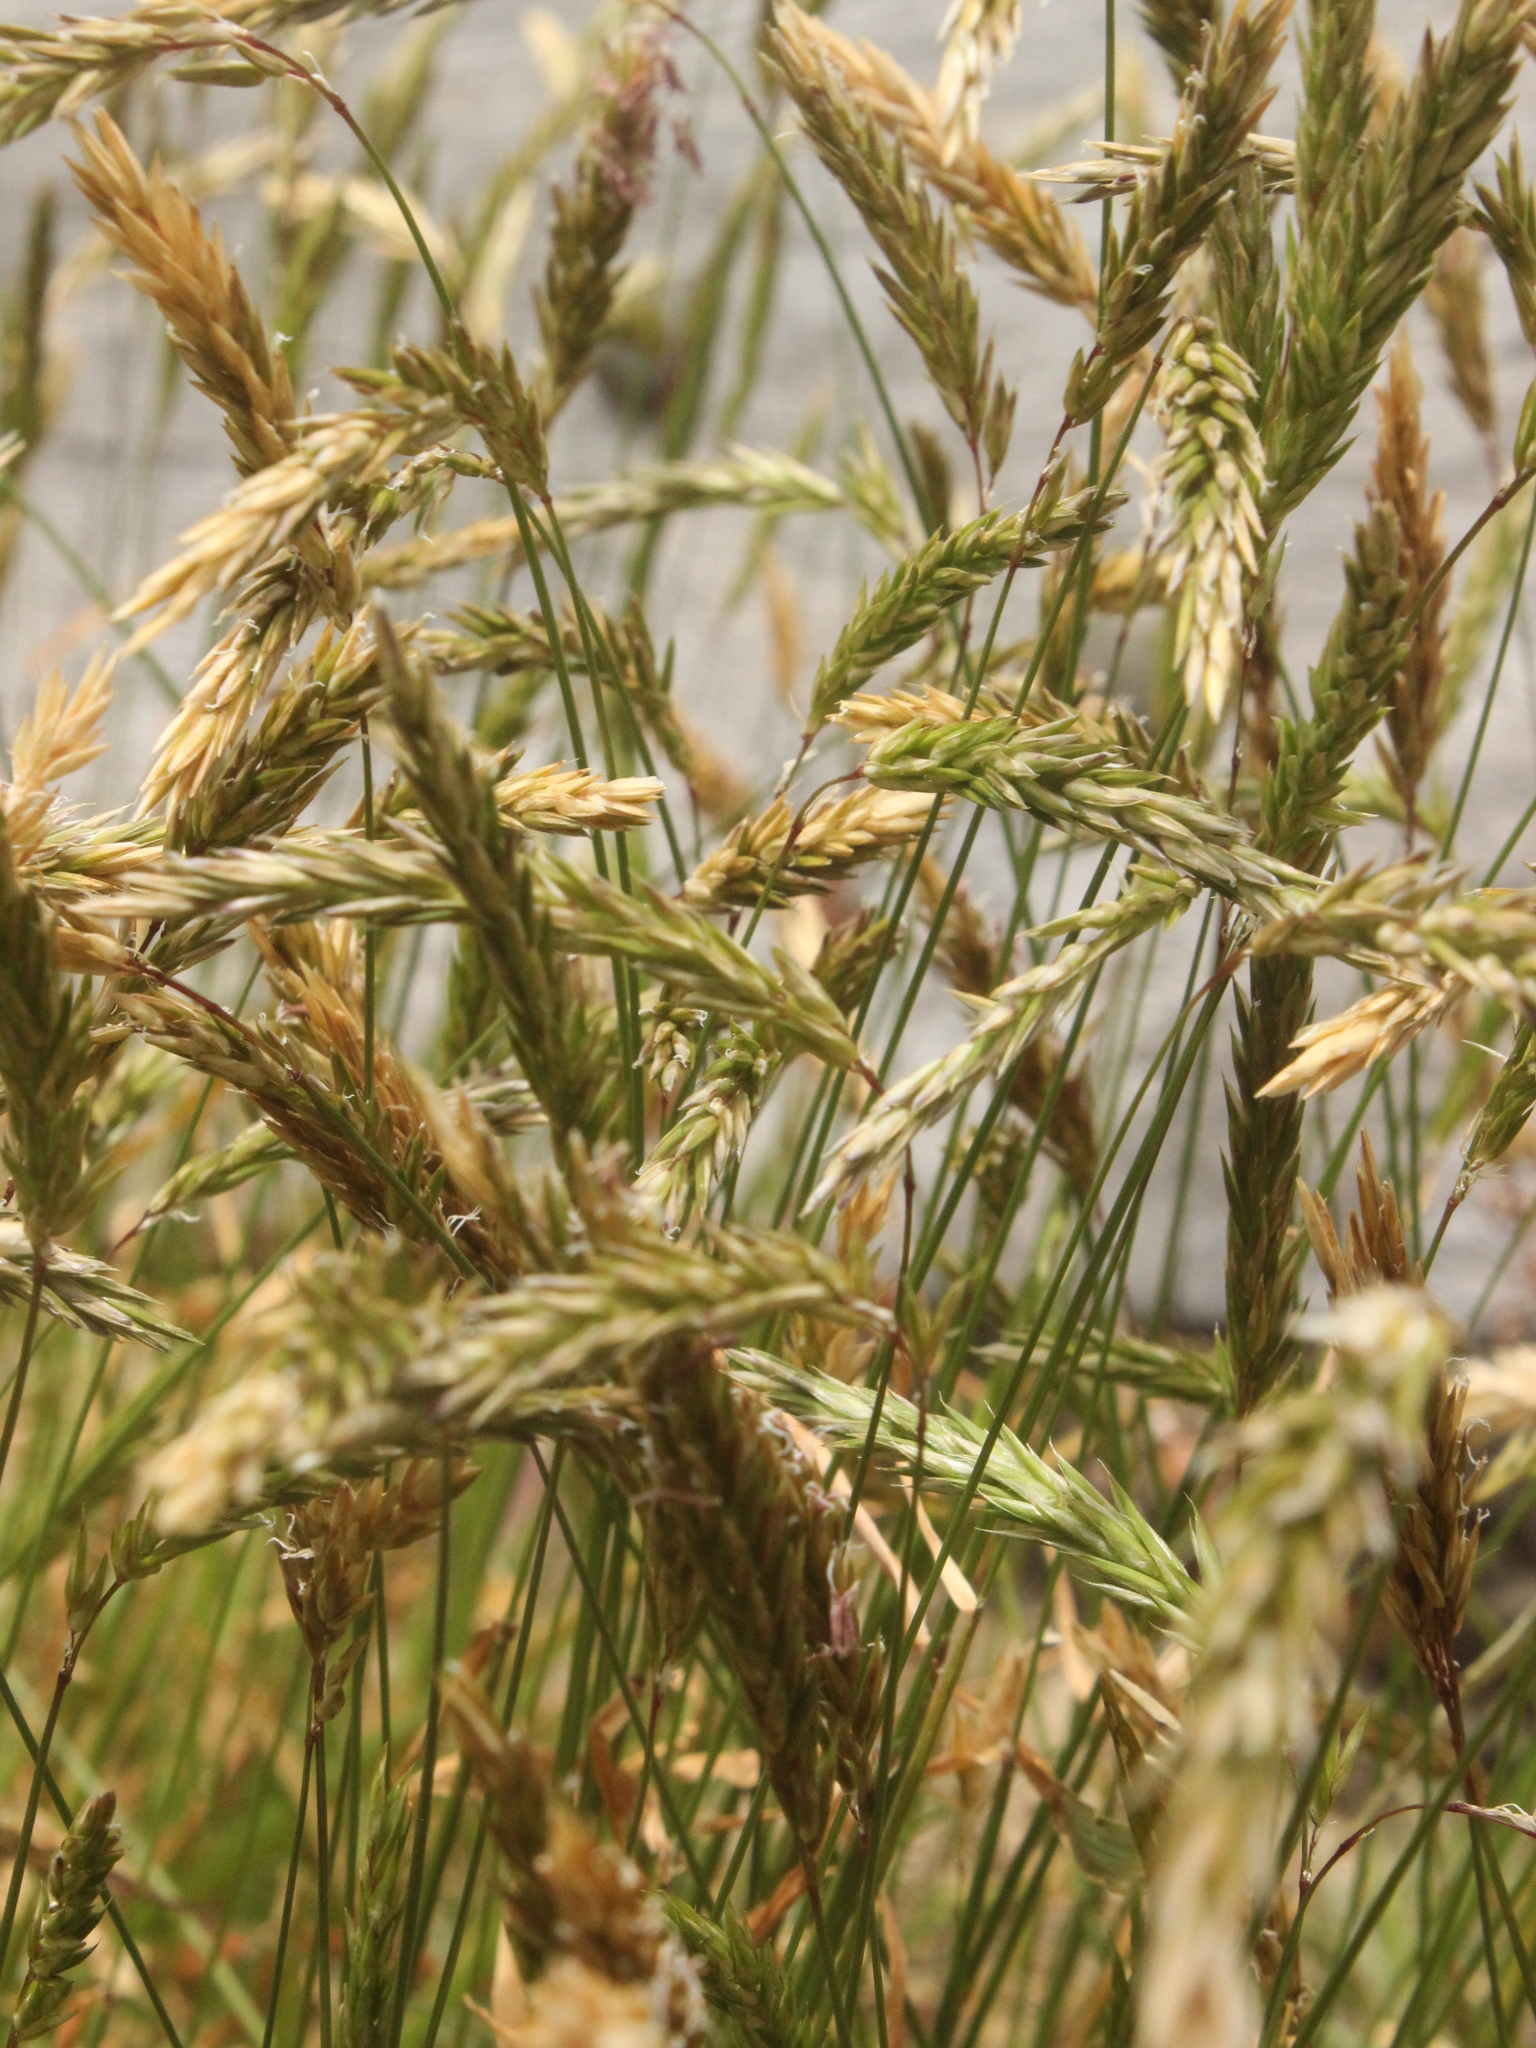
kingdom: Plantae
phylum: Tracheophyta
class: Liliopsida
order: Poales
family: Poaceae
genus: Anthoxanthum
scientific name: Anthoxanthum odoratum
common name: Sweet vernalgrass
